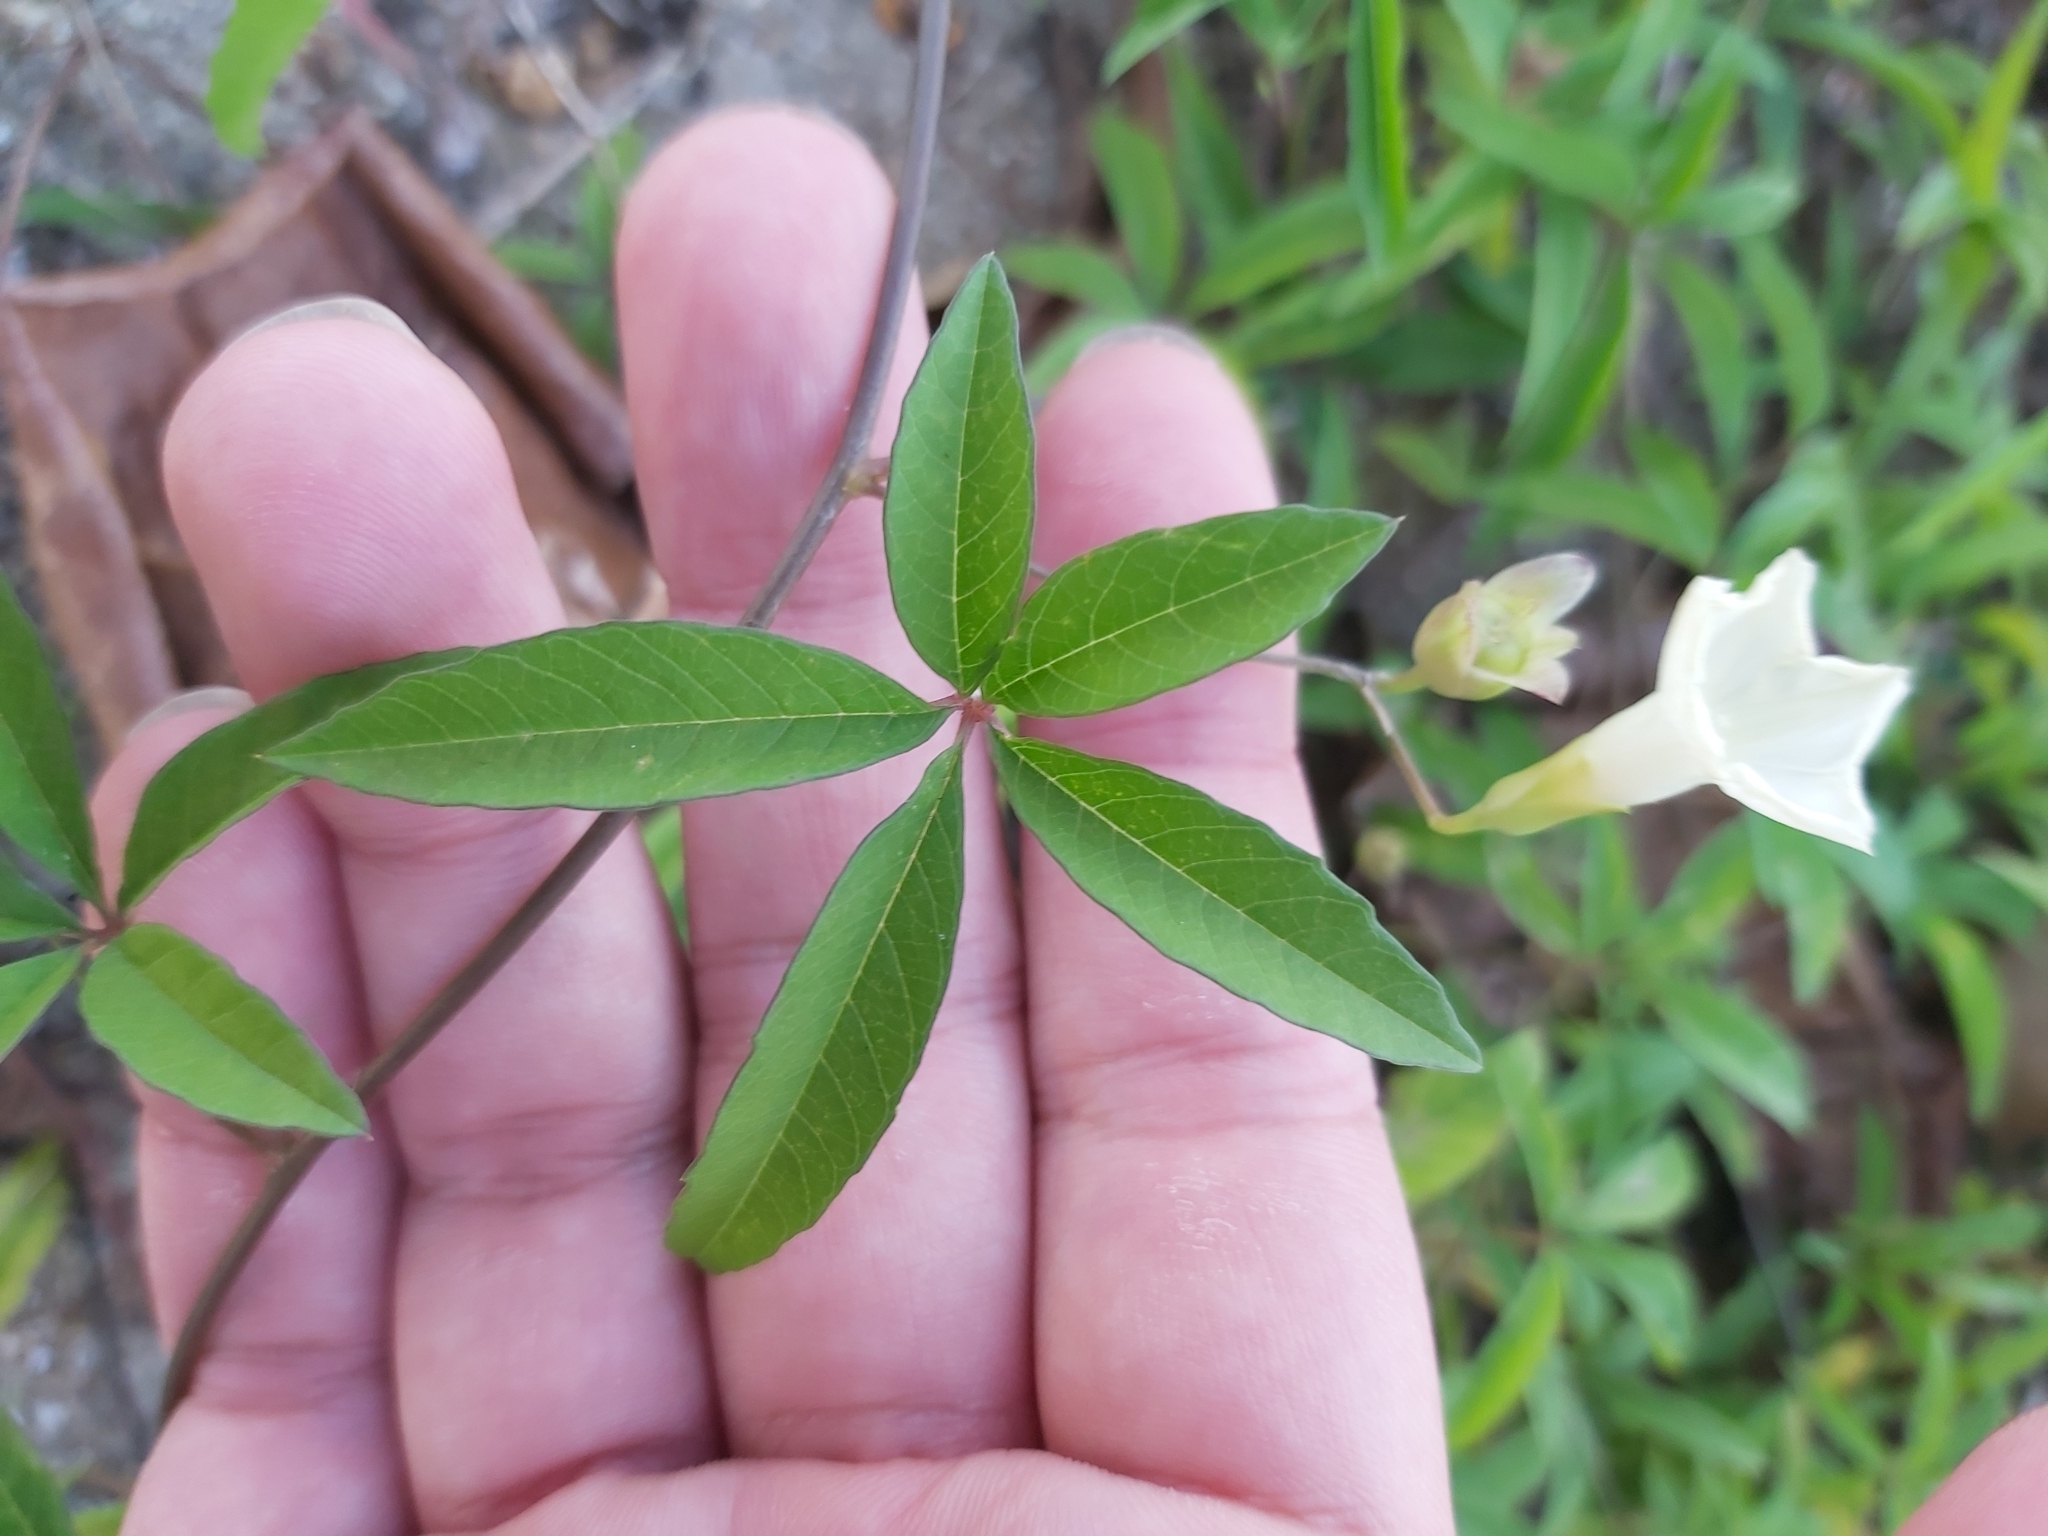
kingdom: Plantae
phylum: Tracheophyta
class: Magnoliopsida
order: Solanales
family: Convolvulaceae
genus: Distimake
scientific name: Distimake quinquefolius
